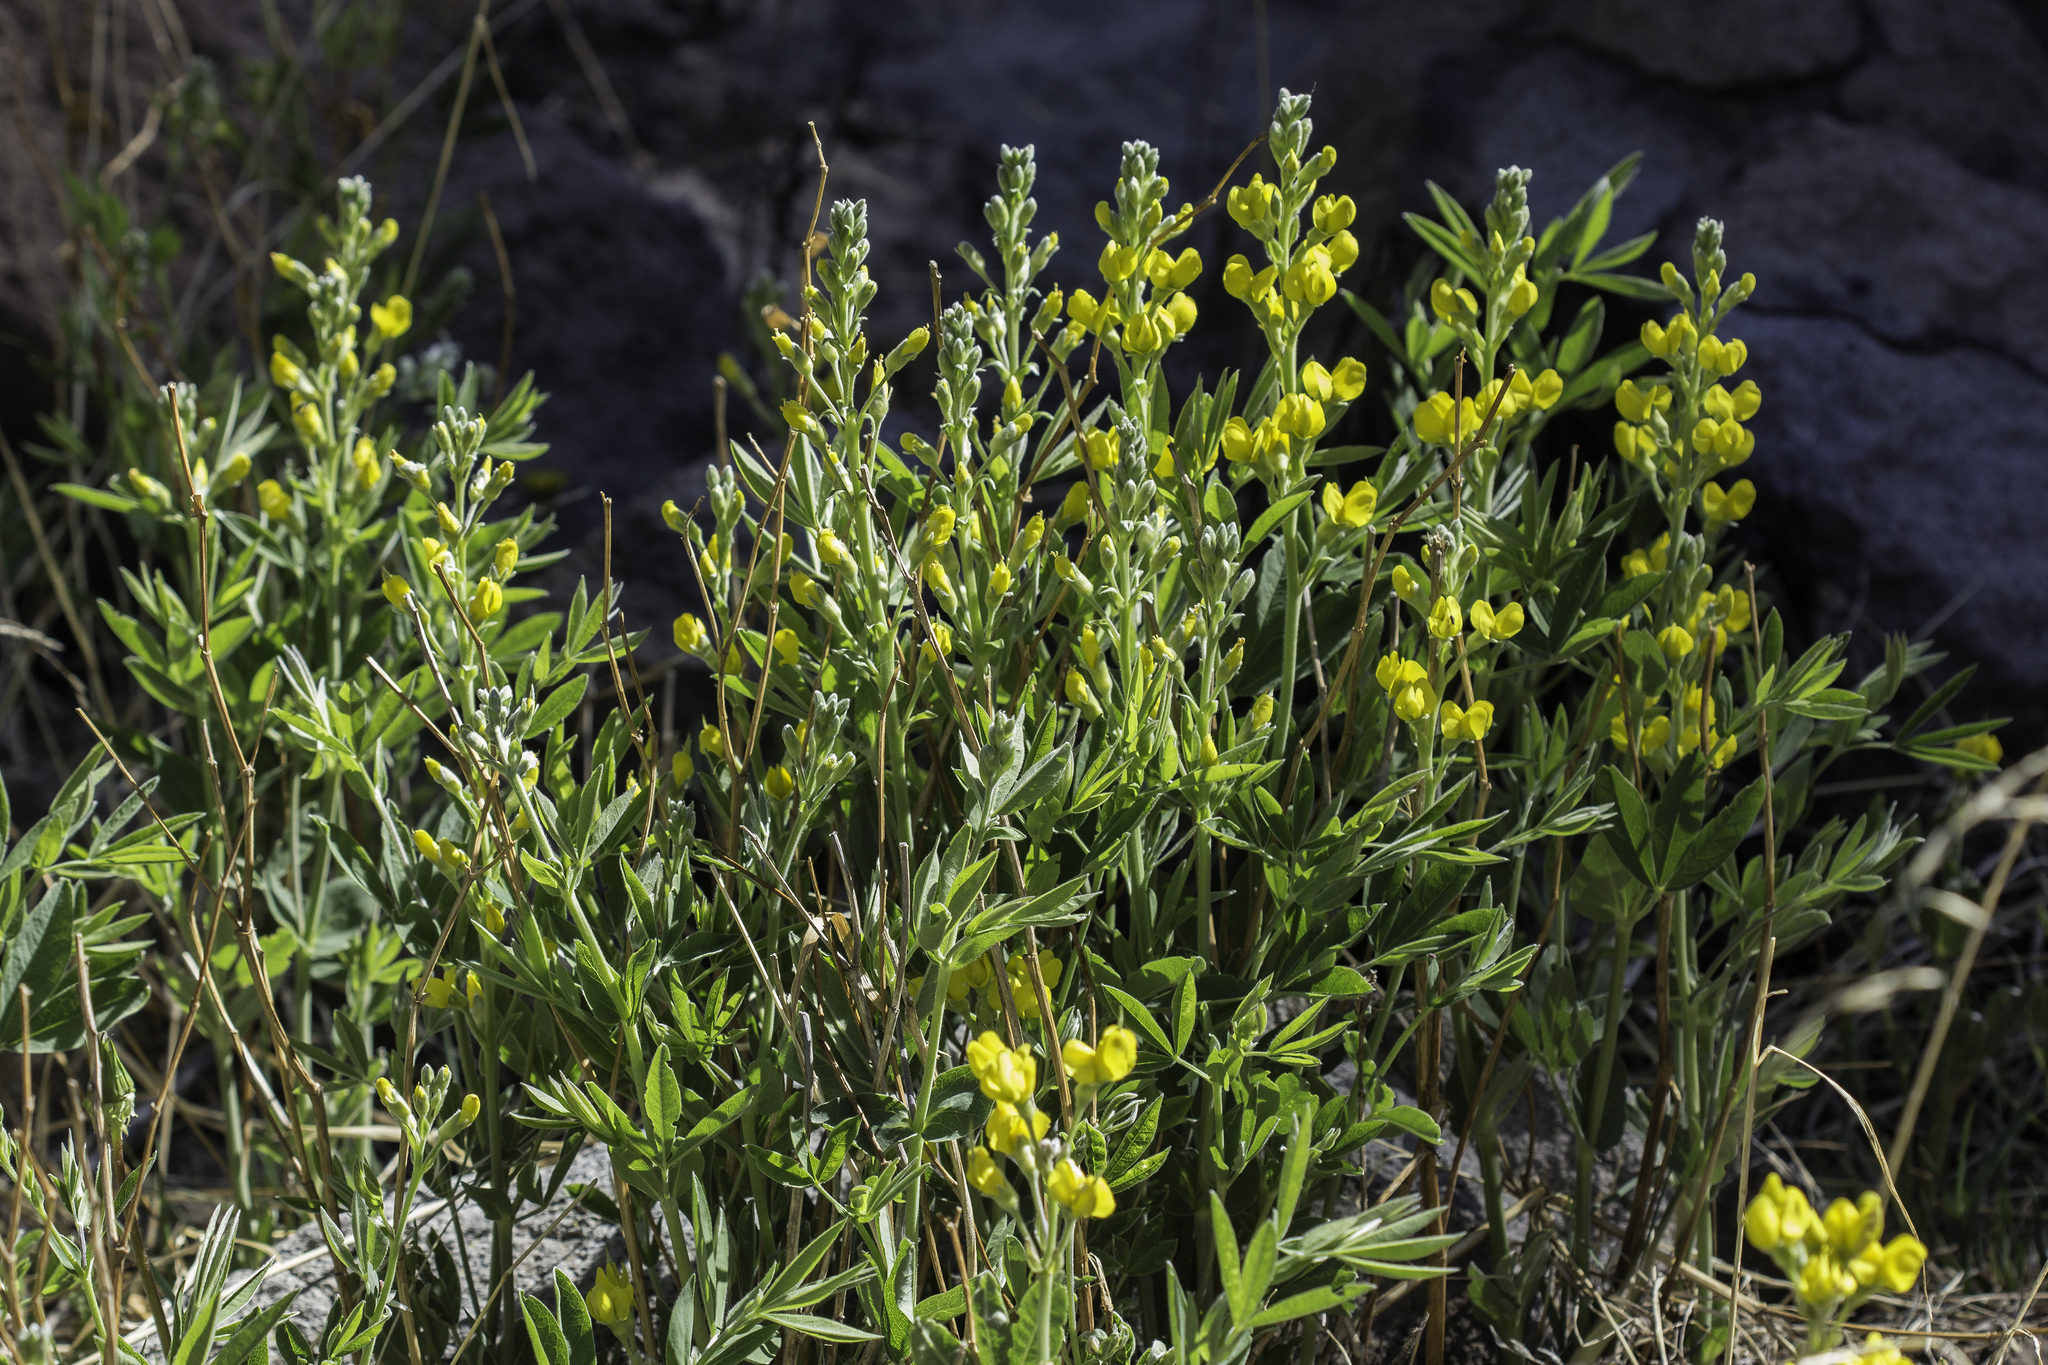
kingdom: Plantae
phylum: Tracheophyta
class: Magnoliopsida
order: Fabales
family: Fabaceae
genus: Thermopsis
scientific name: Thermopsis montana
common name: False lupin
